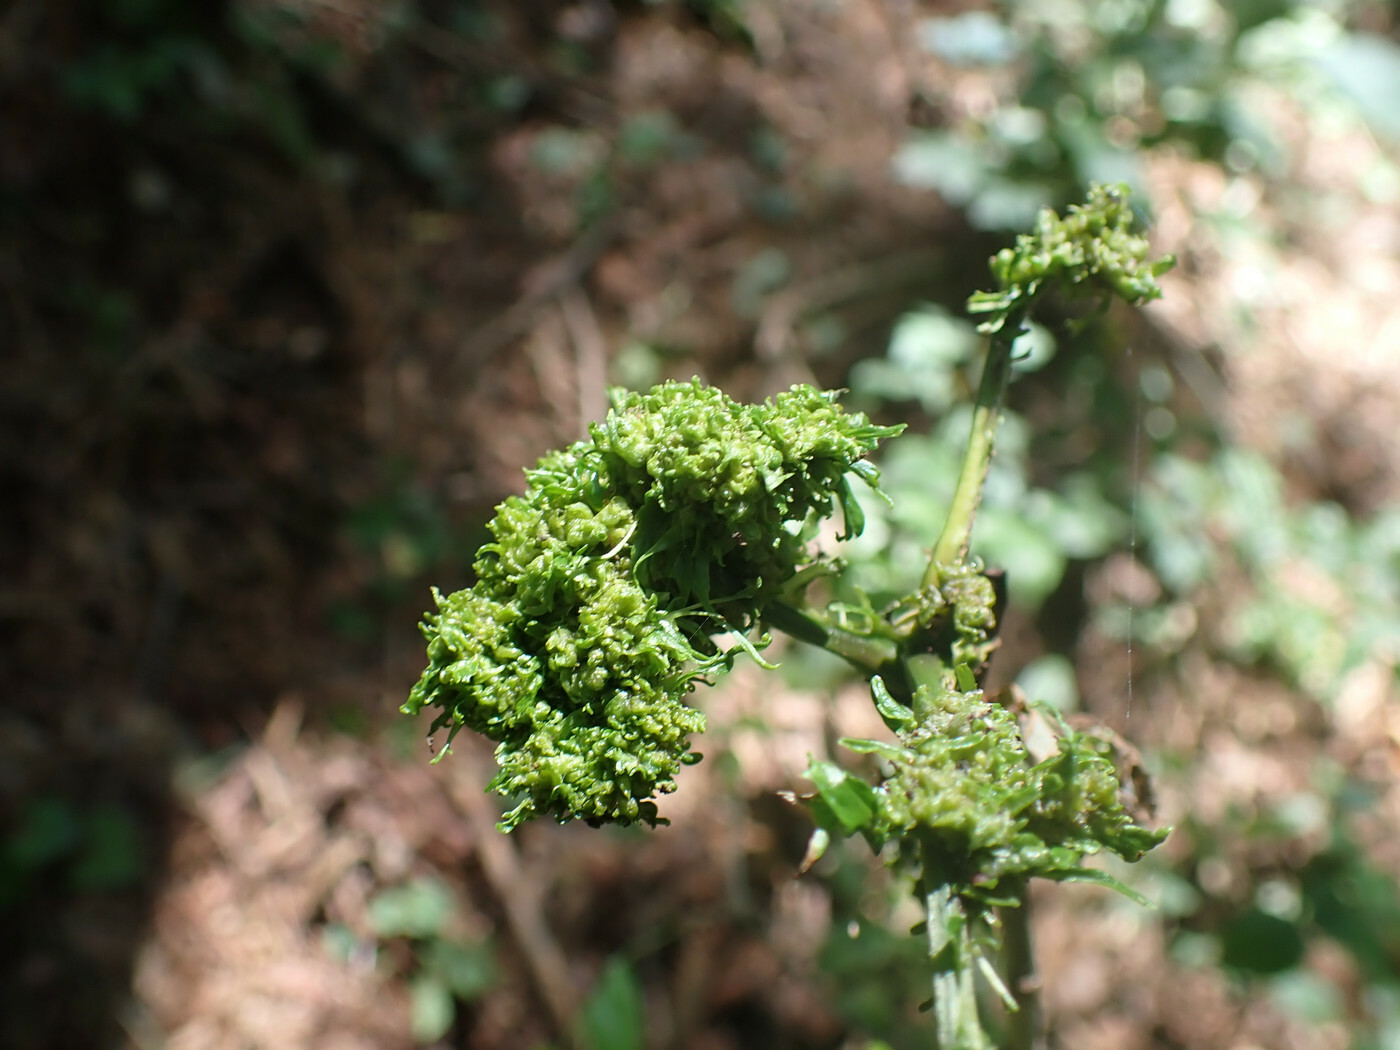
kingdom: Animalia
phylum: Arthropoda
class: Arachnida
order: Trombidiformes
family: Eriophyidae
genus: Aceria
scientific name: Aceria fraxiniflora
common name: Ash flower gall mite
